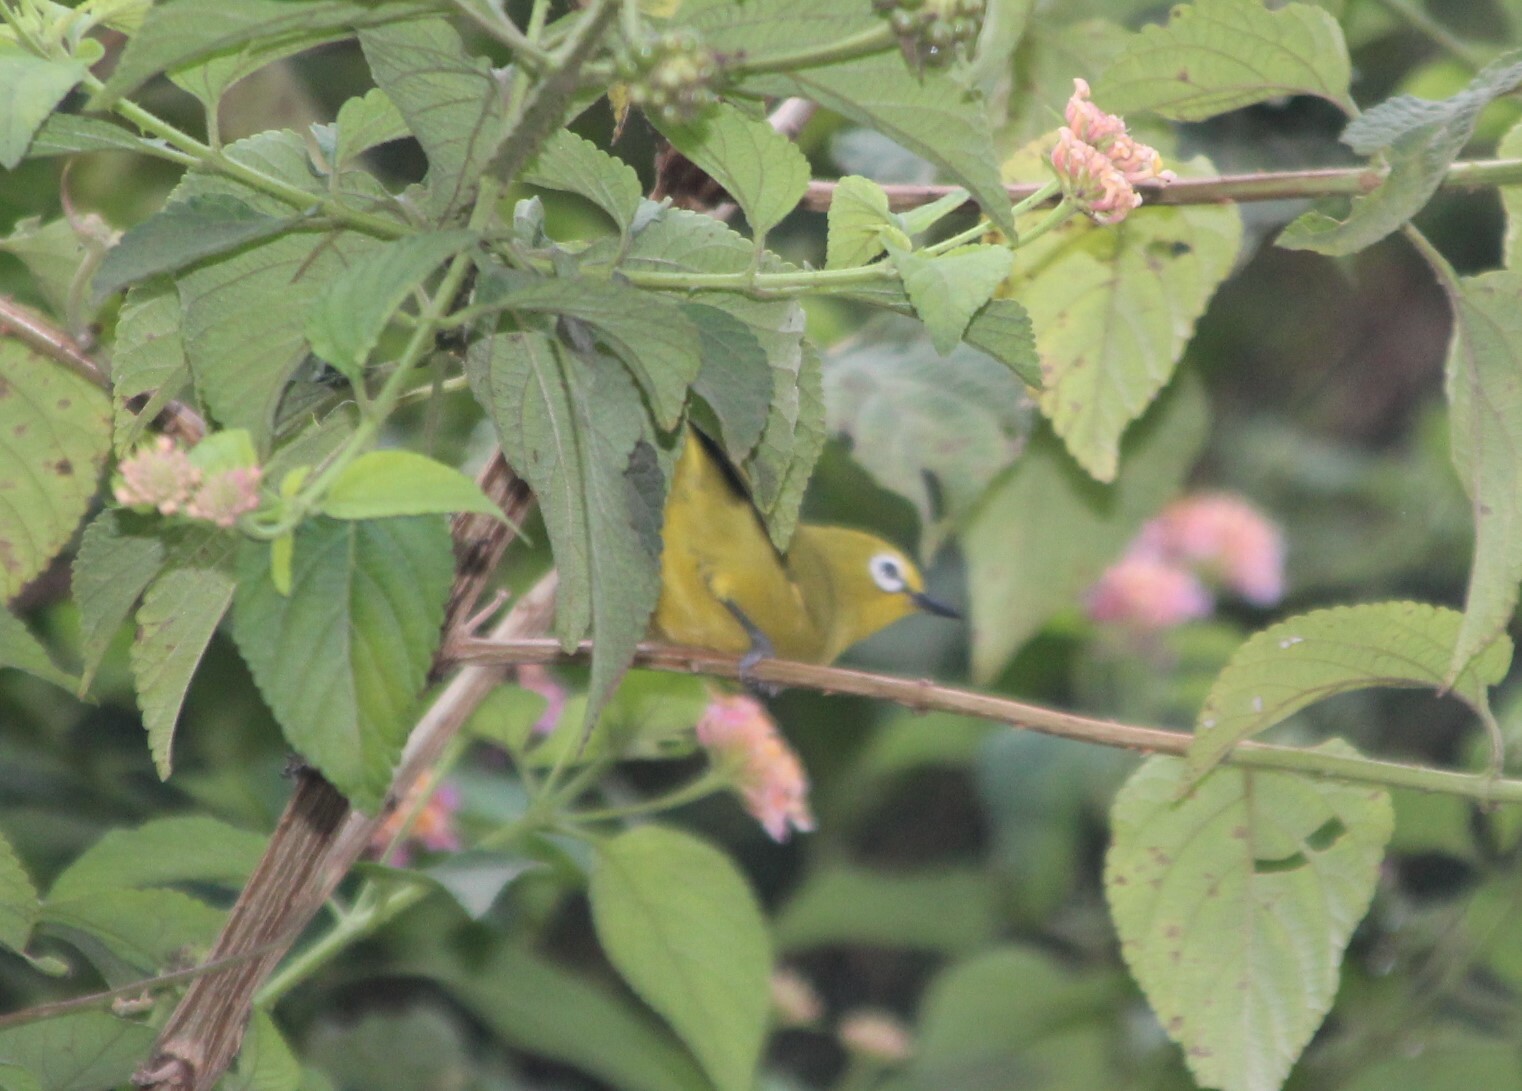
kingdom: Animalia
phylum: Chordata
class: Aves
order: Passeriformes
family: Zosteropidae
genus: Zosterops
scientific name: Zosterops stuhlmanni
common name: Green white-eye
